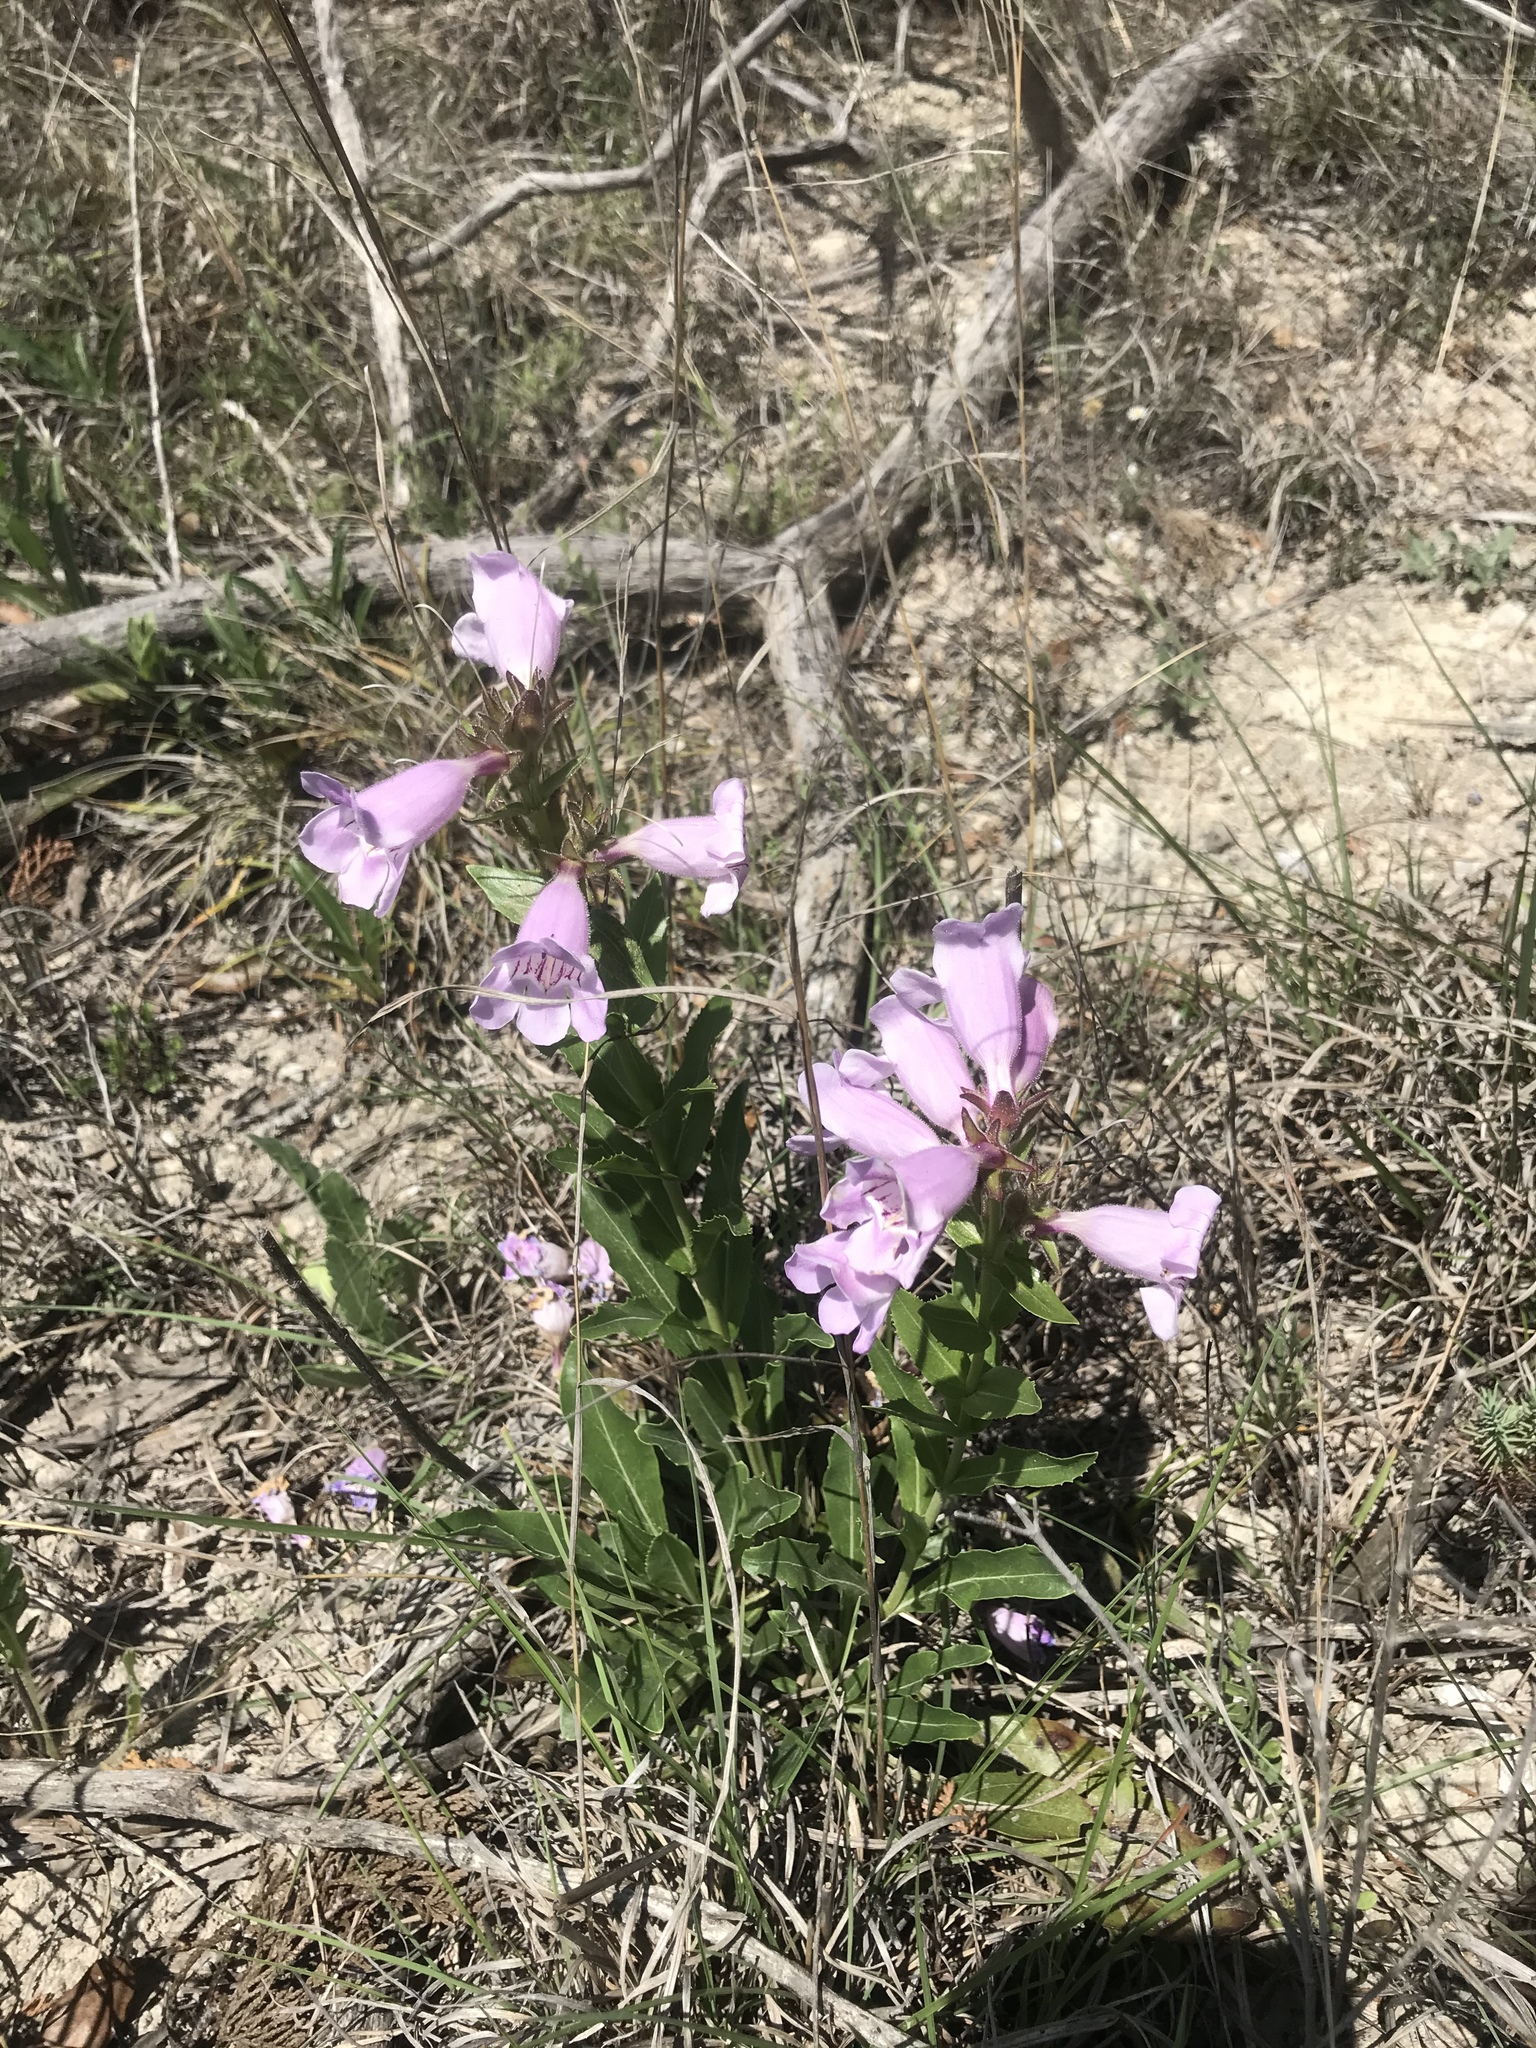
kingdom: Plantae
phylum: Tracheophyta
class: Magnoliopsida
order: Lamiales
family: Plantaginaceae
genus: Penstemon
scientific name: Penstemon cobaea
